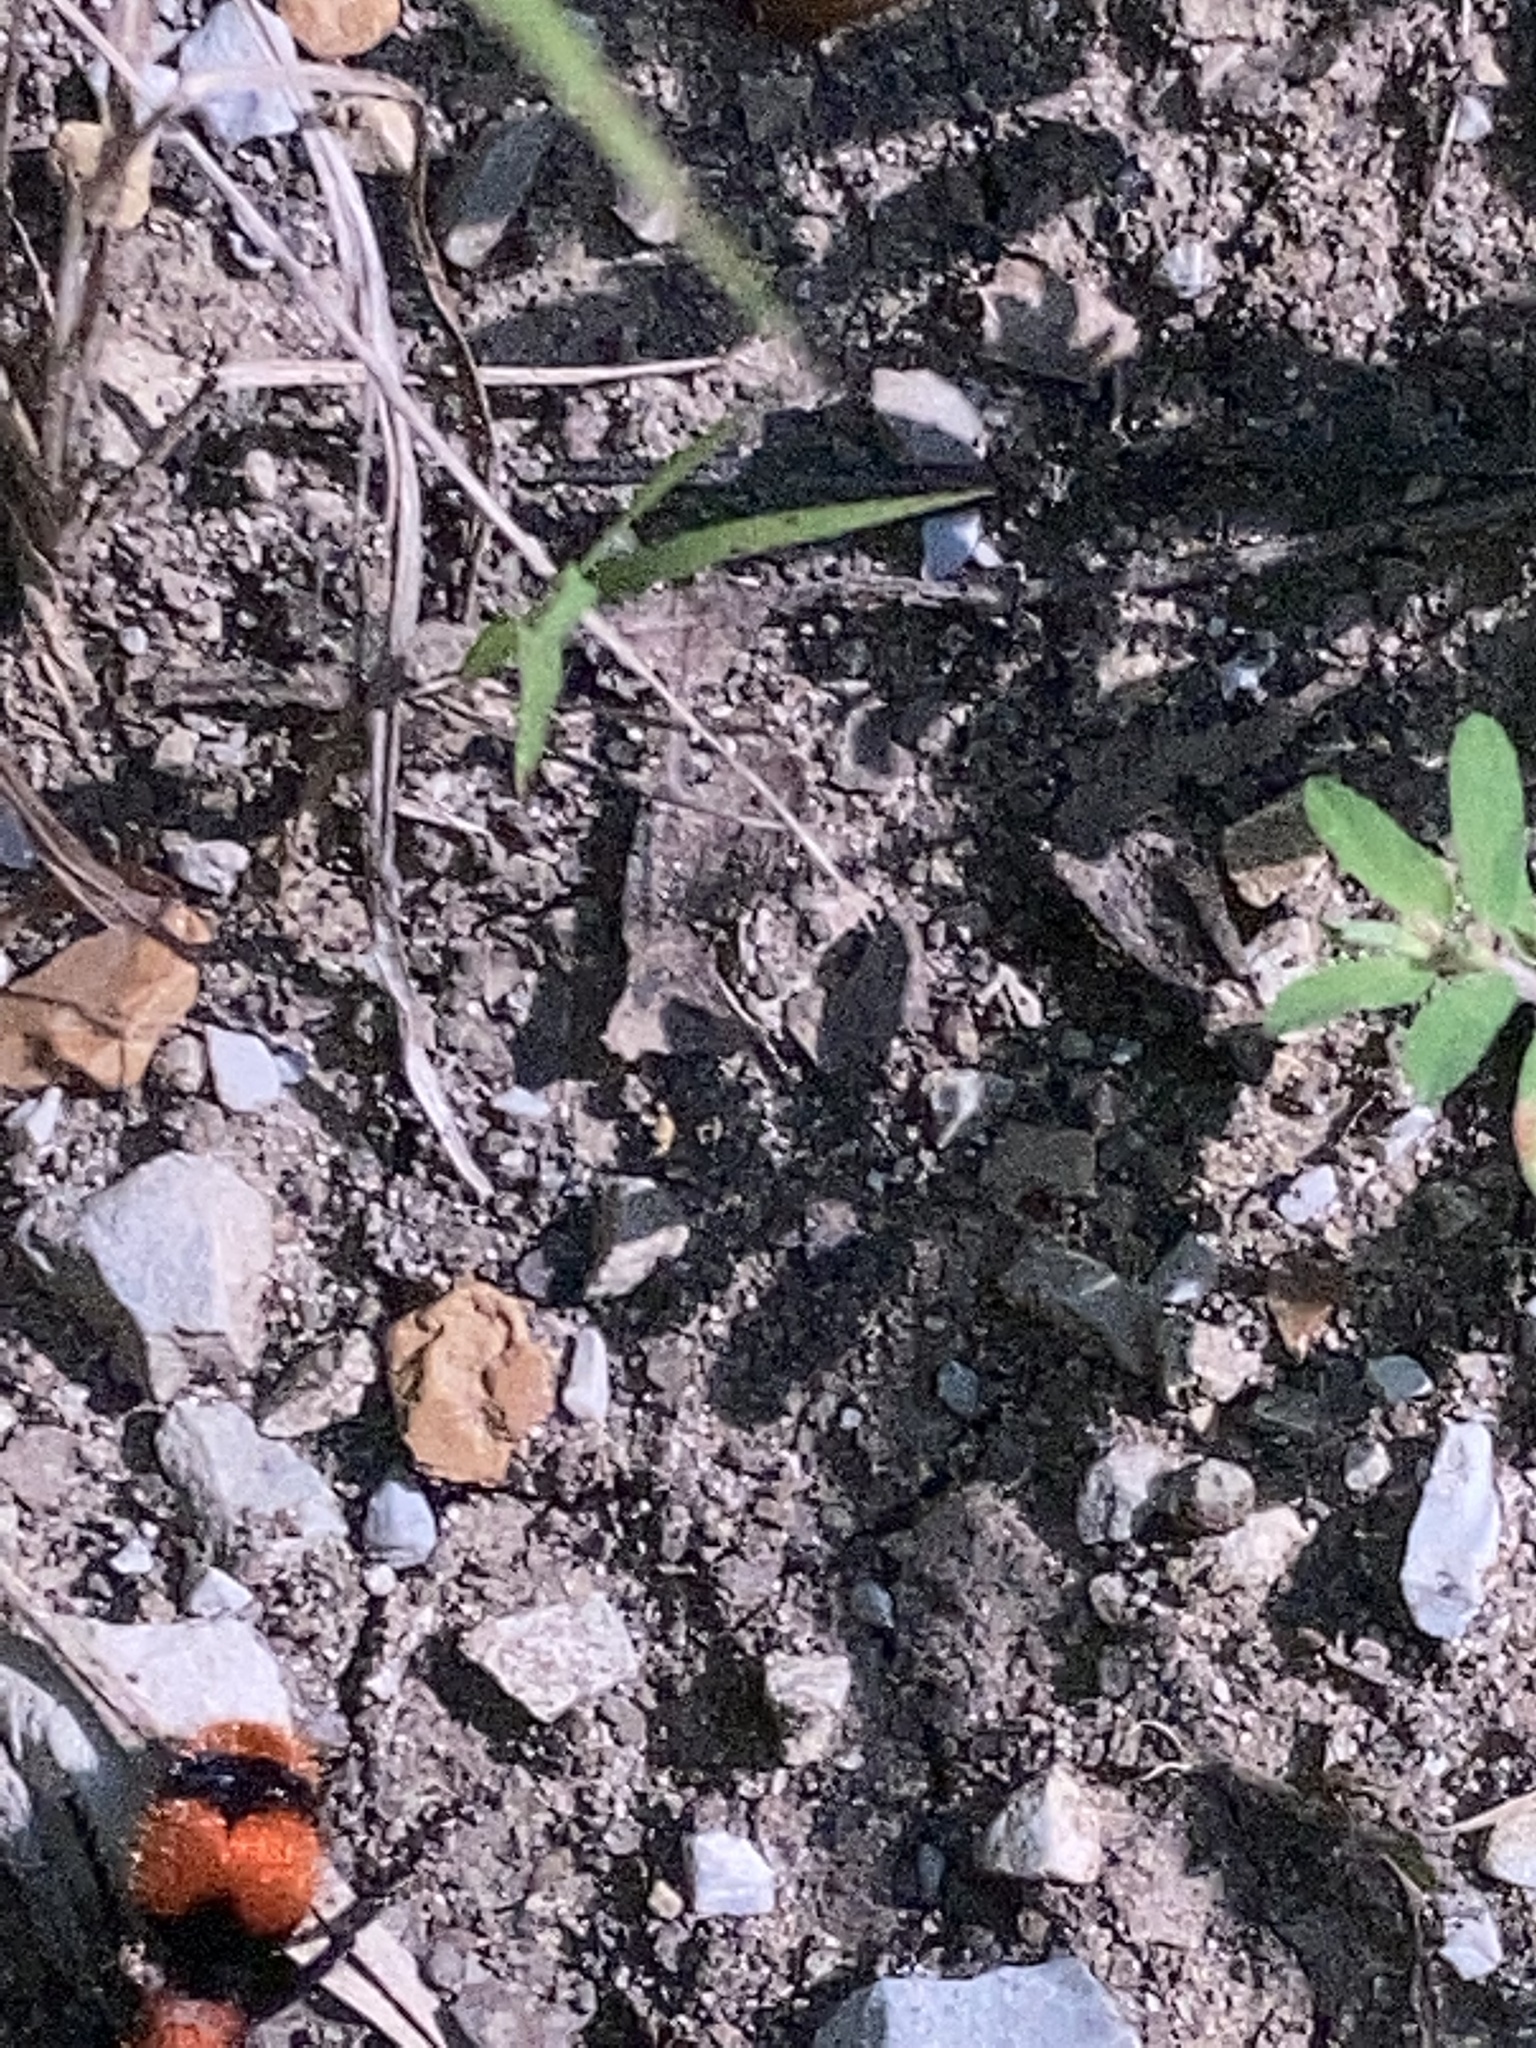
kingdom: Animalia
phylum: Arthropoda
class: Insecta
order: Hymenoptera
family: Mutillidae
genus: Dasymutilla
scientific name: Dasymutilla occidentalis
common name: Common eastern velvet ant
